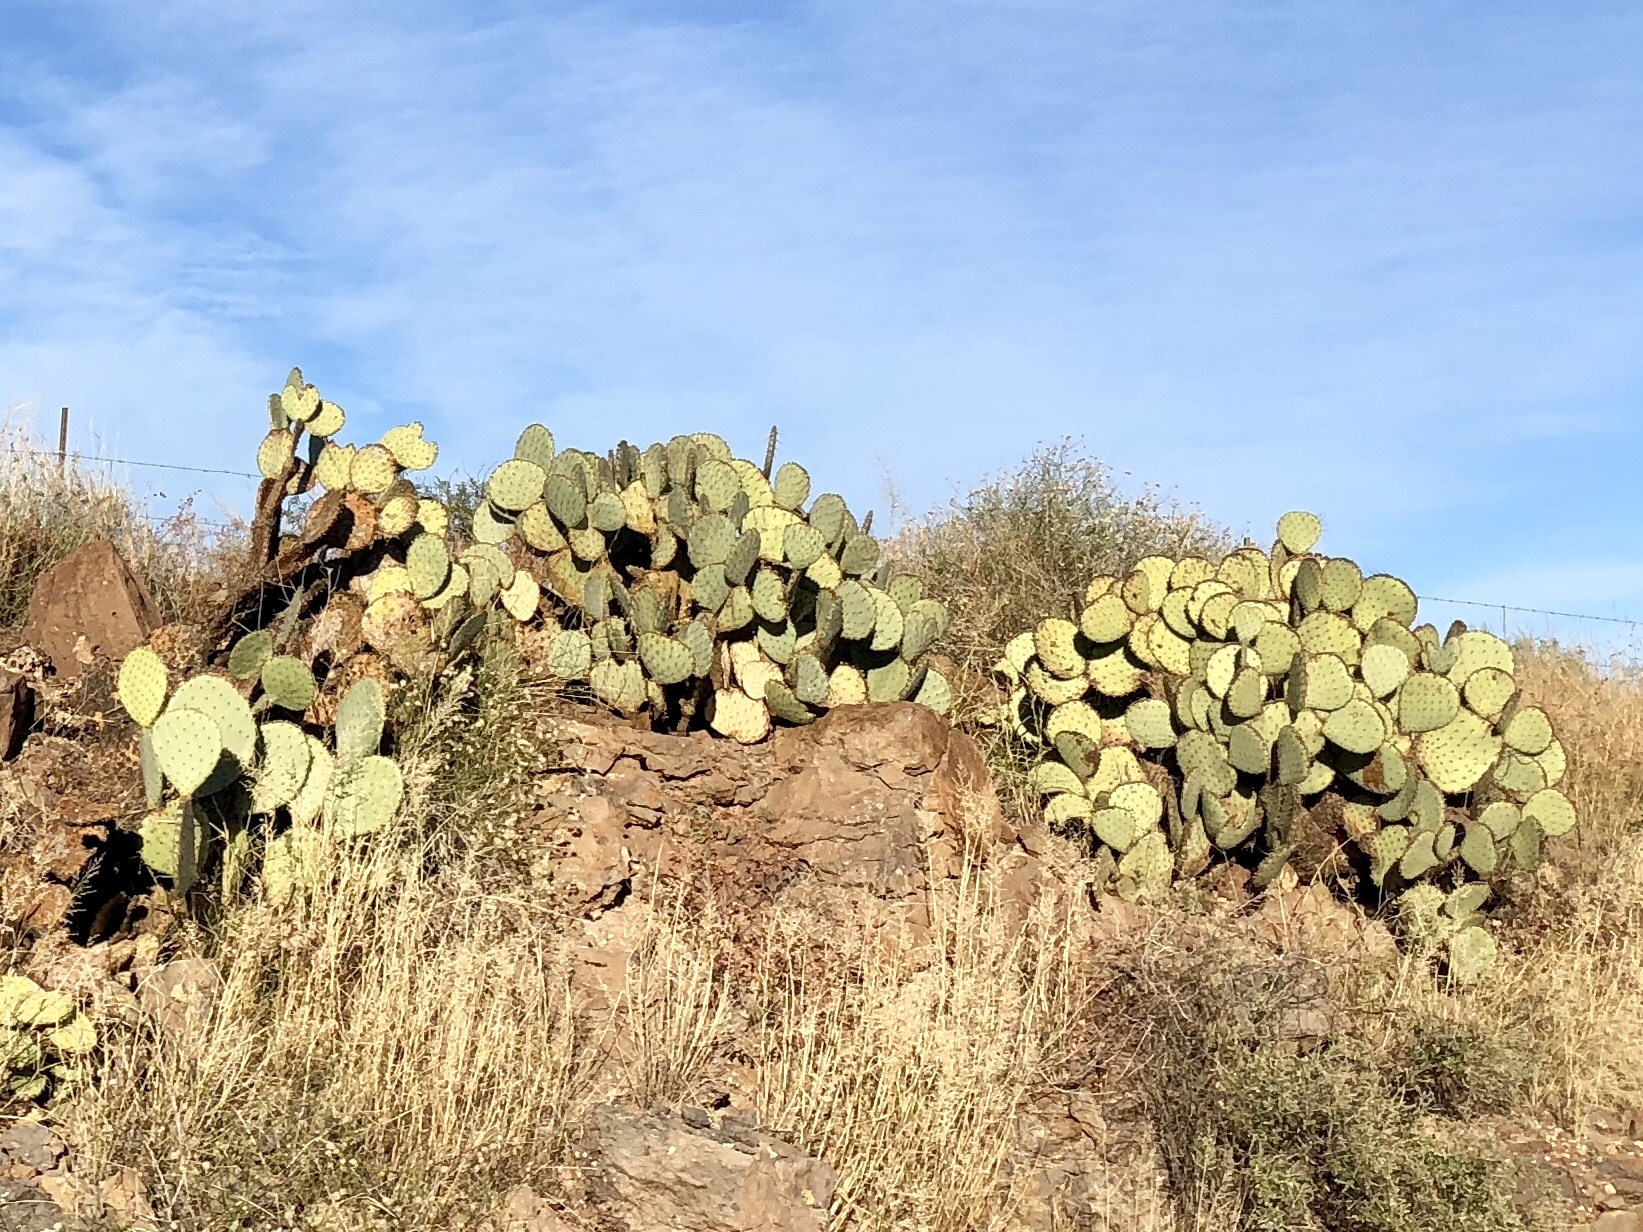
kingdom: Plantae
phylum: Tracheophyta
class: Magnoliopsida
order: Caryophyllales
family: Cactaceae
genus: Opuntia
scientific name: Opuntia chlorotica
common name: Dollar-joint prickly-pear
